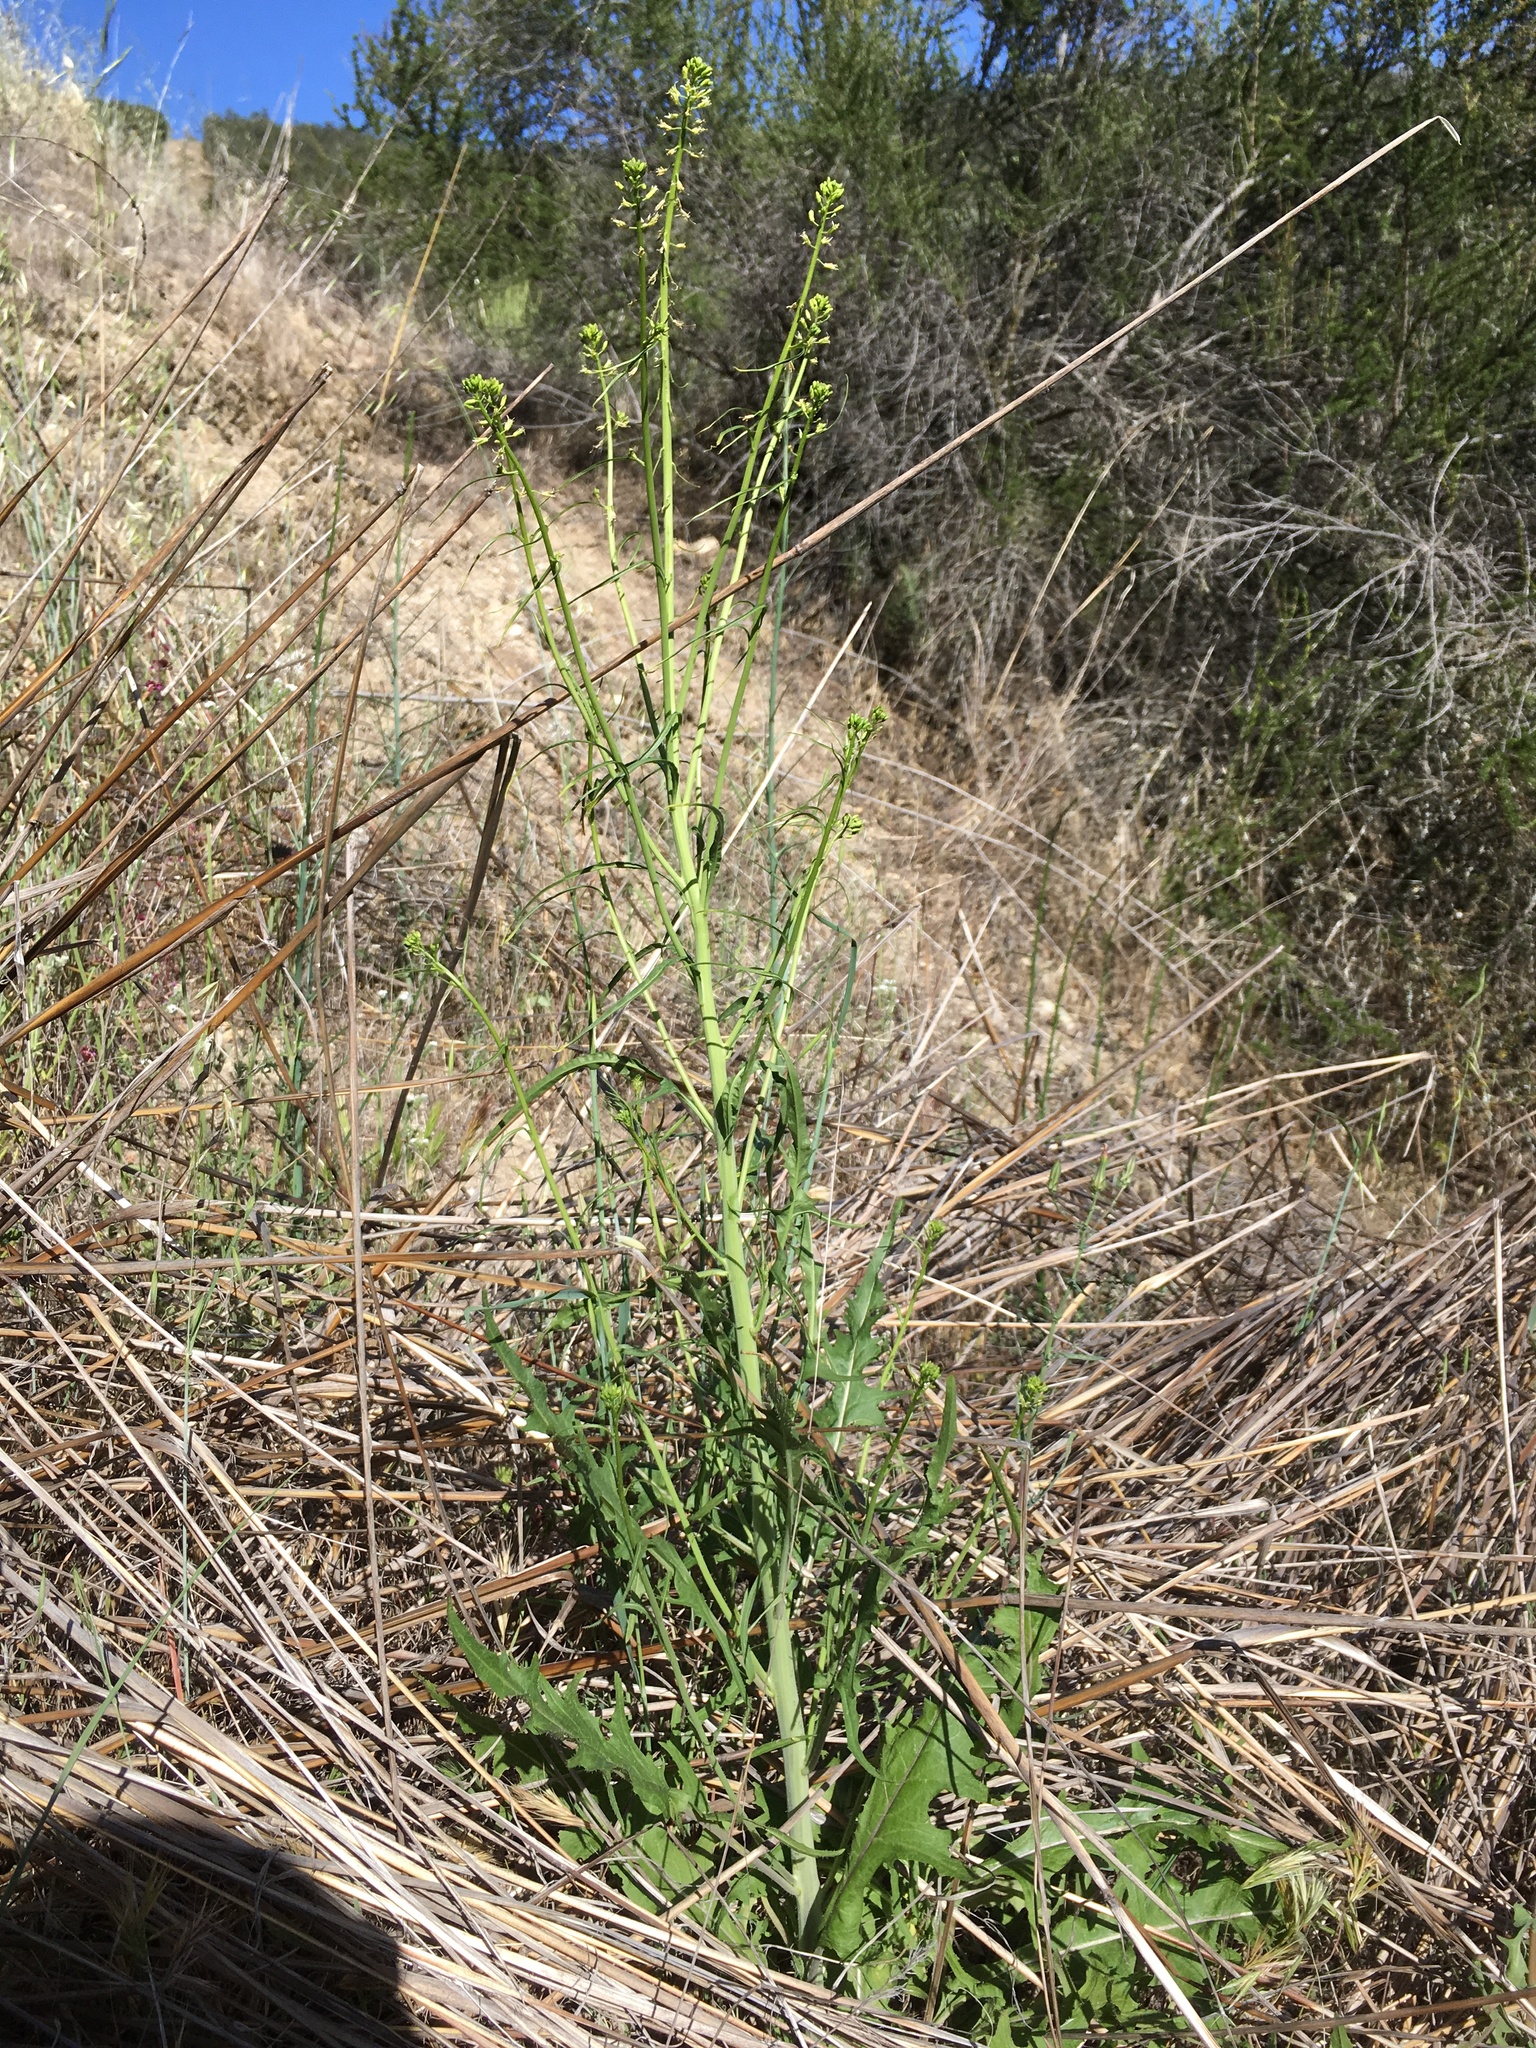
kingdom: Plantae
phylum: Tracheophyta
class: Magnoliopsida
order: Brassicales
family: Brassicaceae
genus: Streptanthus
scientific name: Streptanthus lasiophyllus
